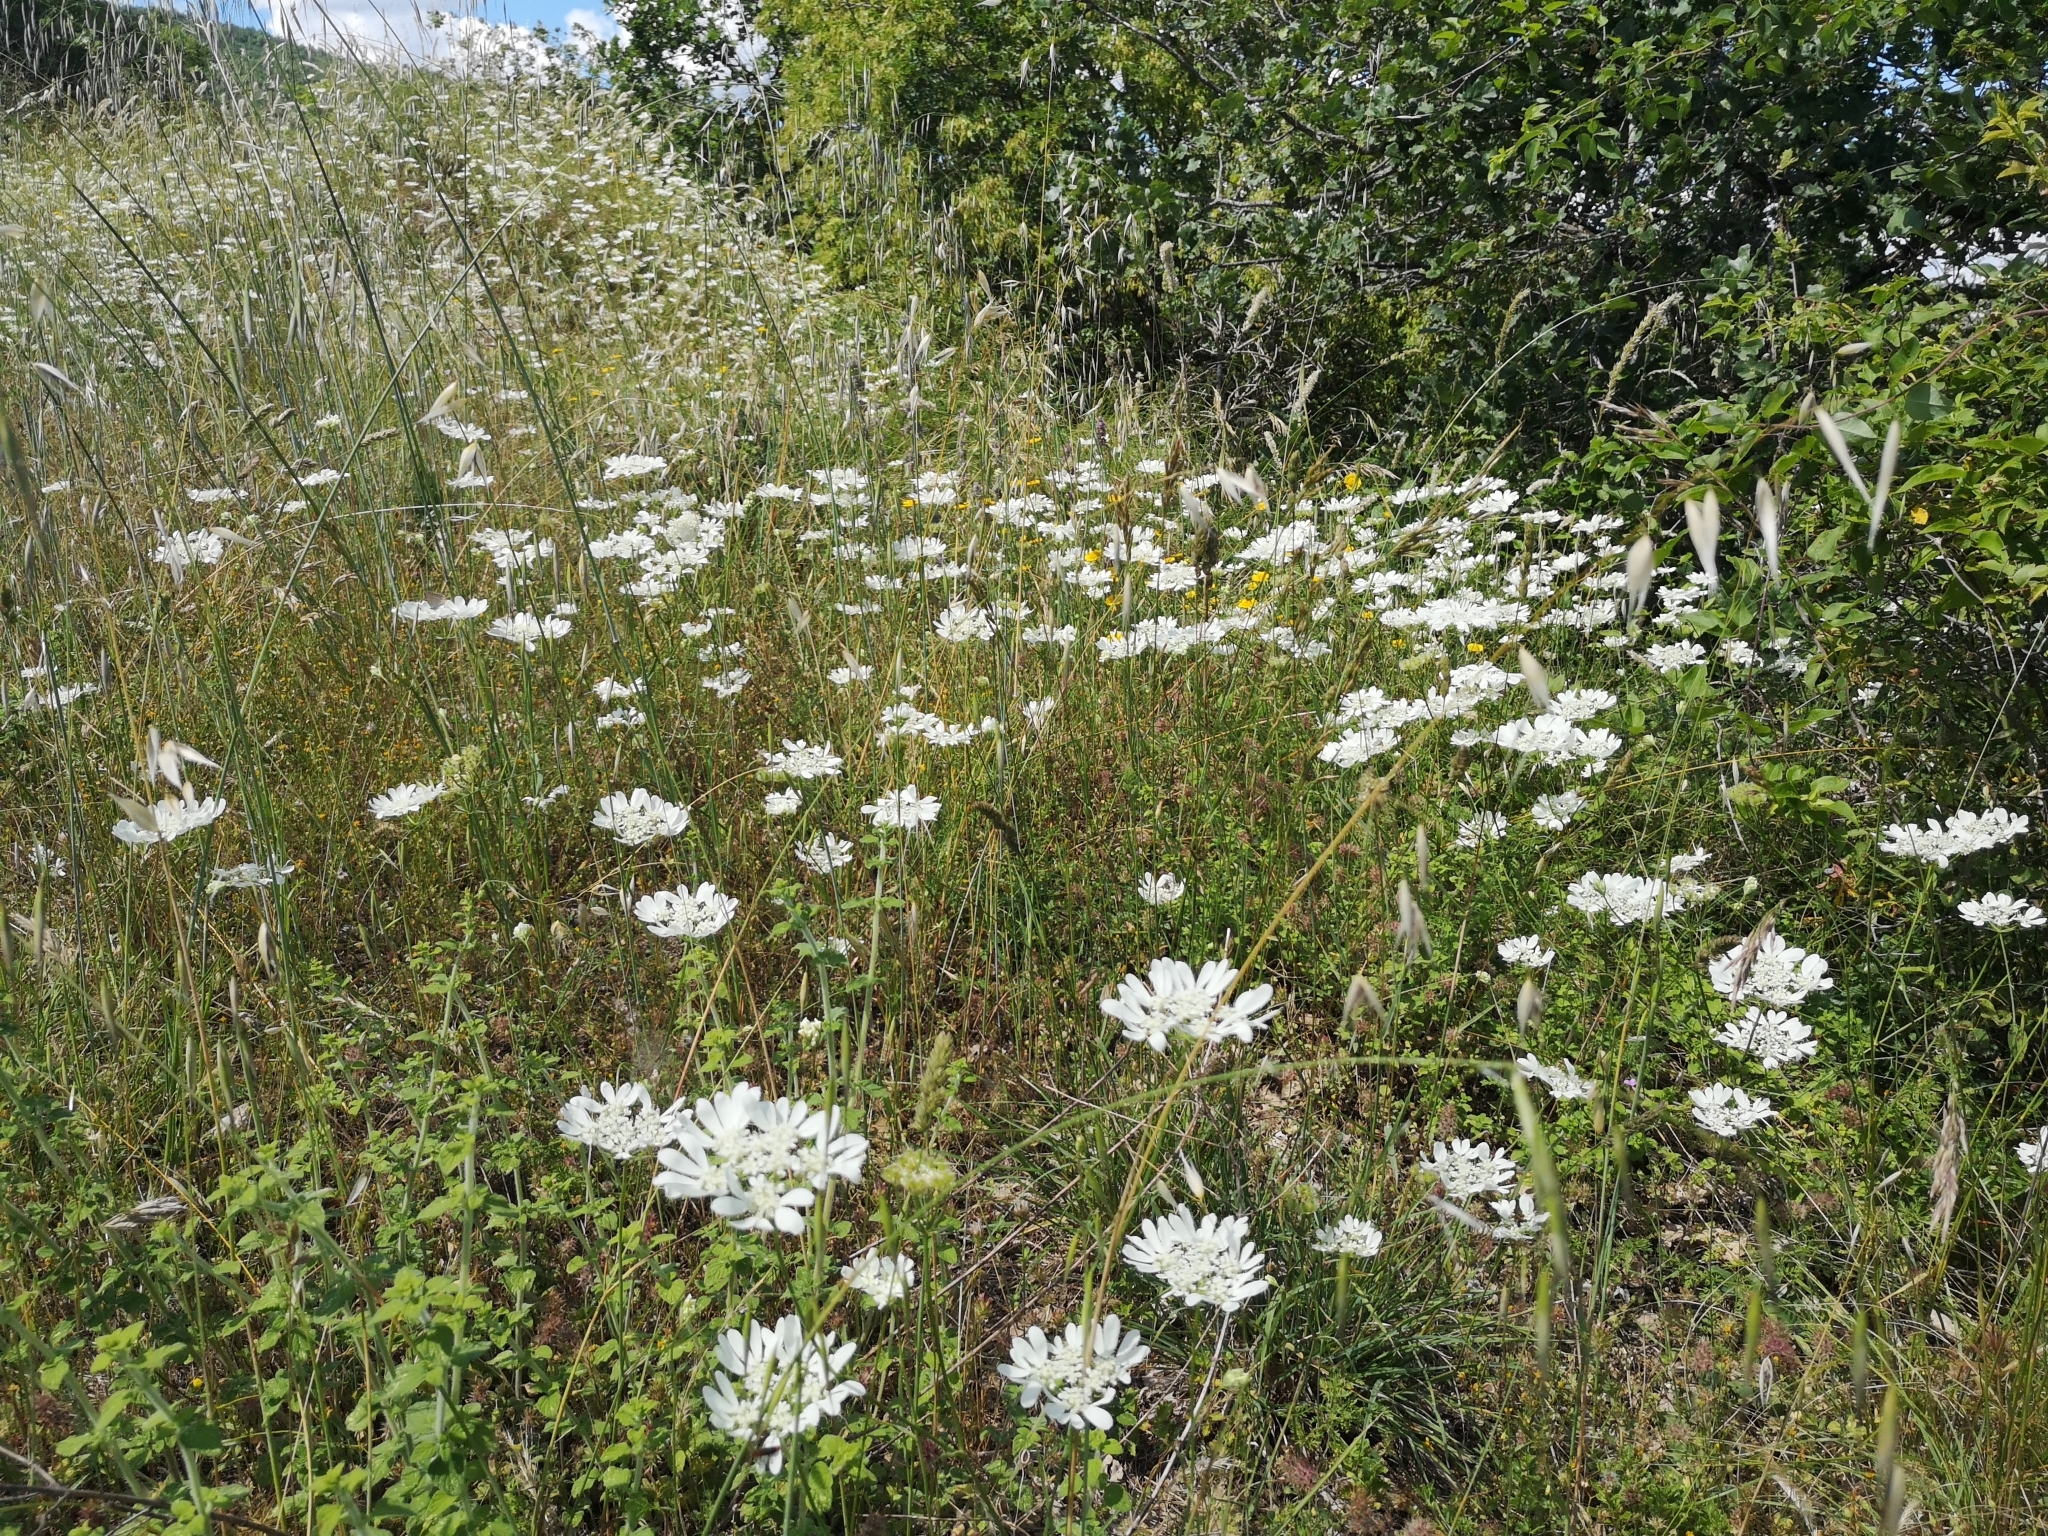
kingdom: Plantae
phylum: Tracheophyta
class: Magnoliopsida
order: Apiales
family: Apiaceae
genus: Orlaya
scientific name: Orlaya grandiflora
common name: White lace flower
